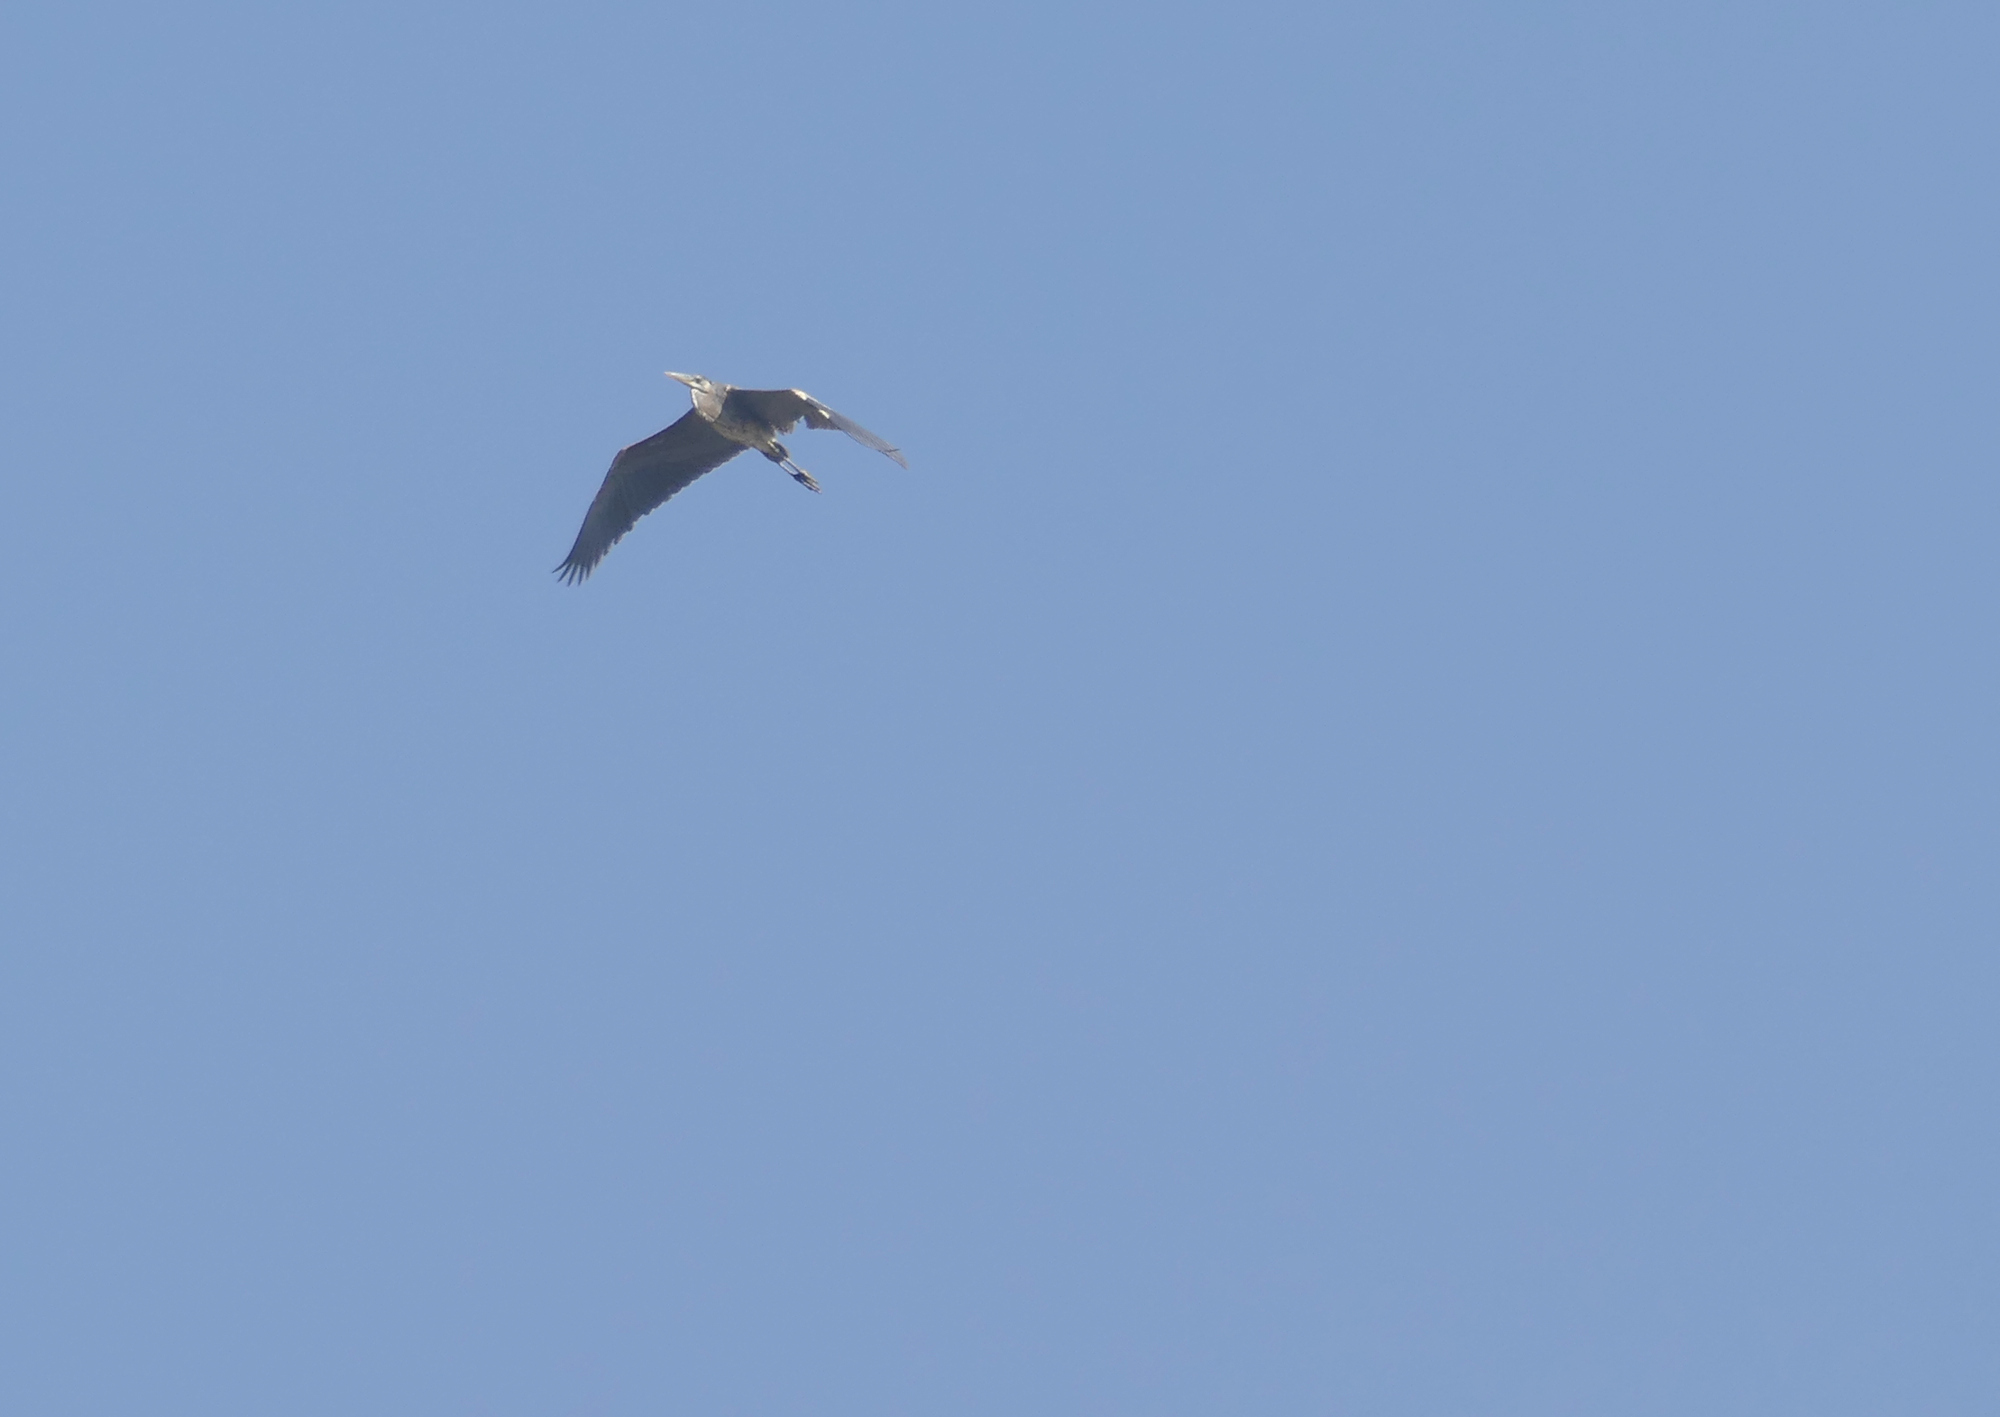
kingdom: Animalia
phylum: Chordata
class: Aves
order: Pelecaniformes
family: Ardeidae
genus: Ardea
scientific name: Ardea herodias
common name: Great blue heron
